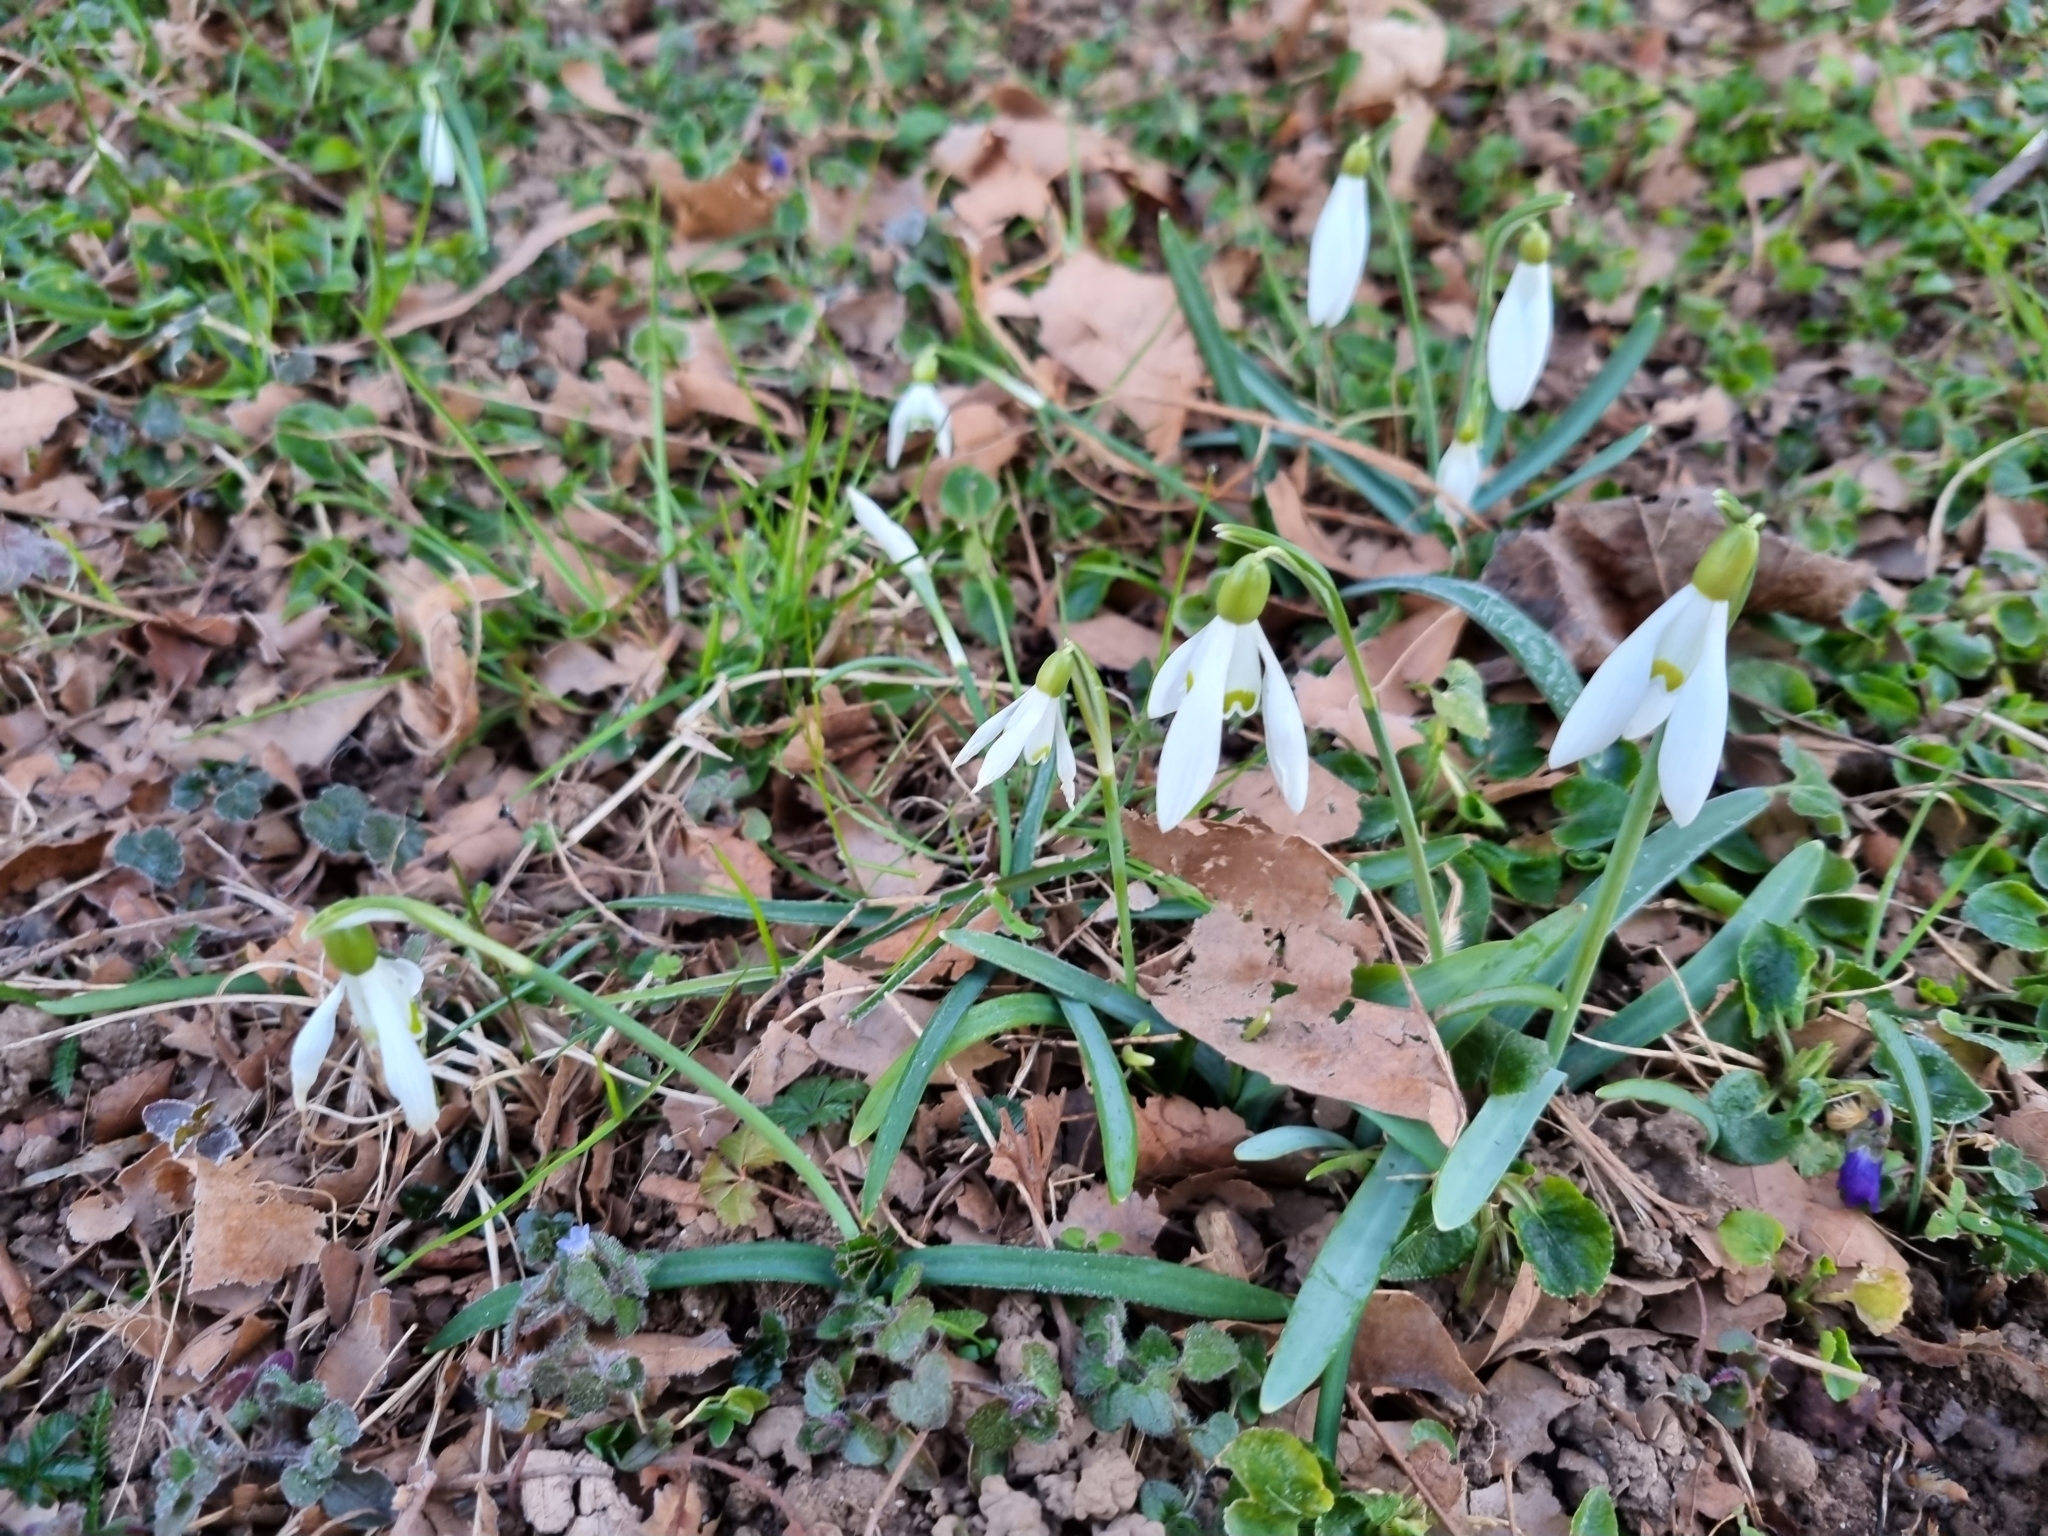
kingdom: Plantae
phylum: Tracheophyta
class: Liliopsida
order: Asparagales
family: Amaryllidaceae
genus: Galanthus
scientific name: Galanthus nivalis
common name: Snowdrop
